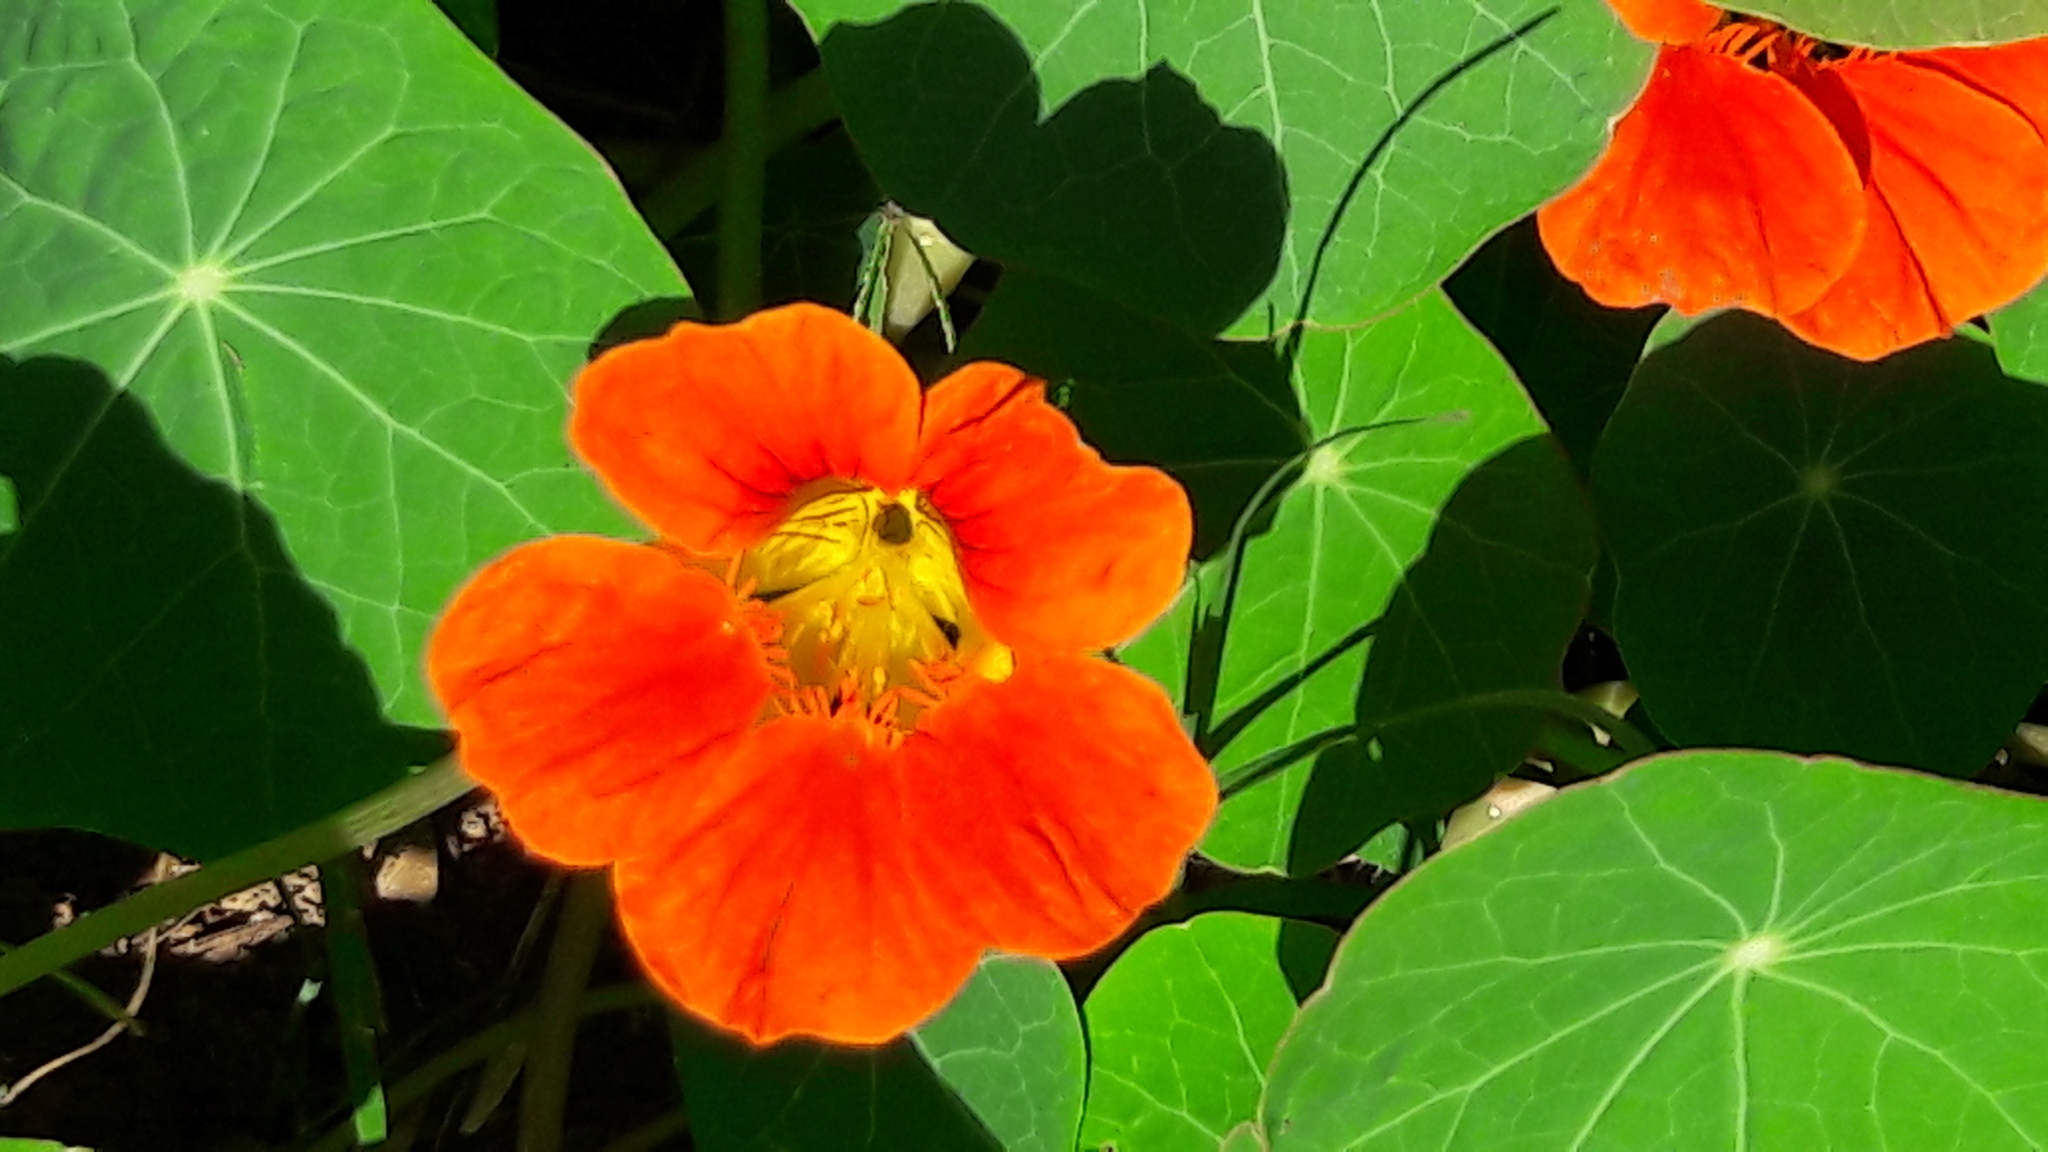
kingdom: Plantae
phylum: Tracheophyta
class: Magnoliopsida
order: Brassicales
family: Tropaeolaceae
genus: Tropaeolum
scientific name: Tropaeolum majus
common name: Nasturtium
